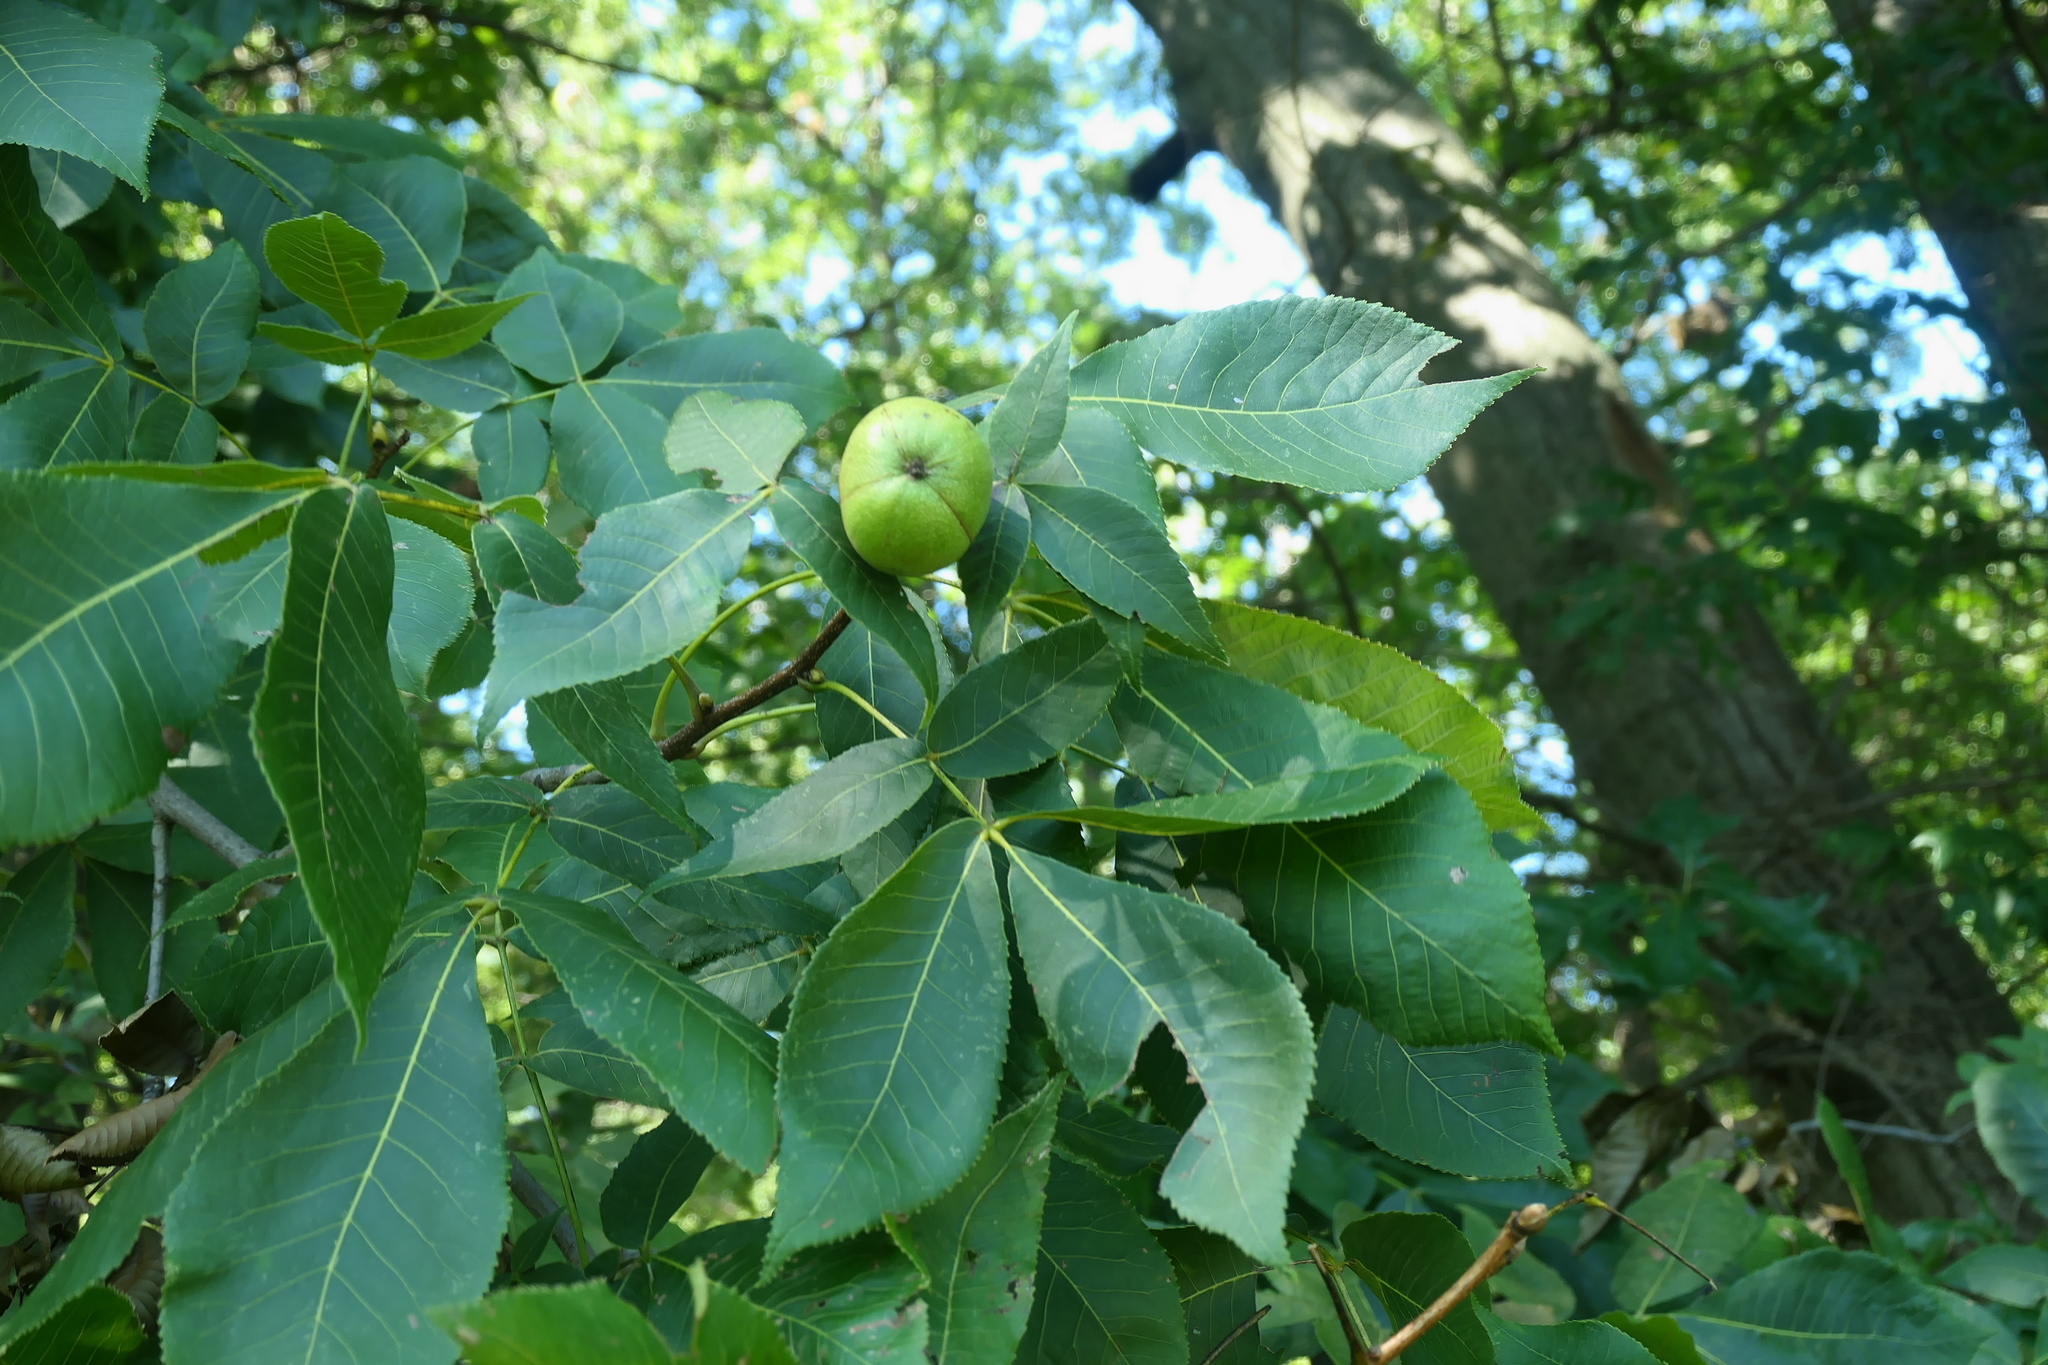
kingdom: Plantae
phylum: Tracheophyta
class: Magnoliopsida
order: Fagales
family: Juglandaceae
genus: Carya
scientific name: Carya ovata
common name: Shagbark hickory
